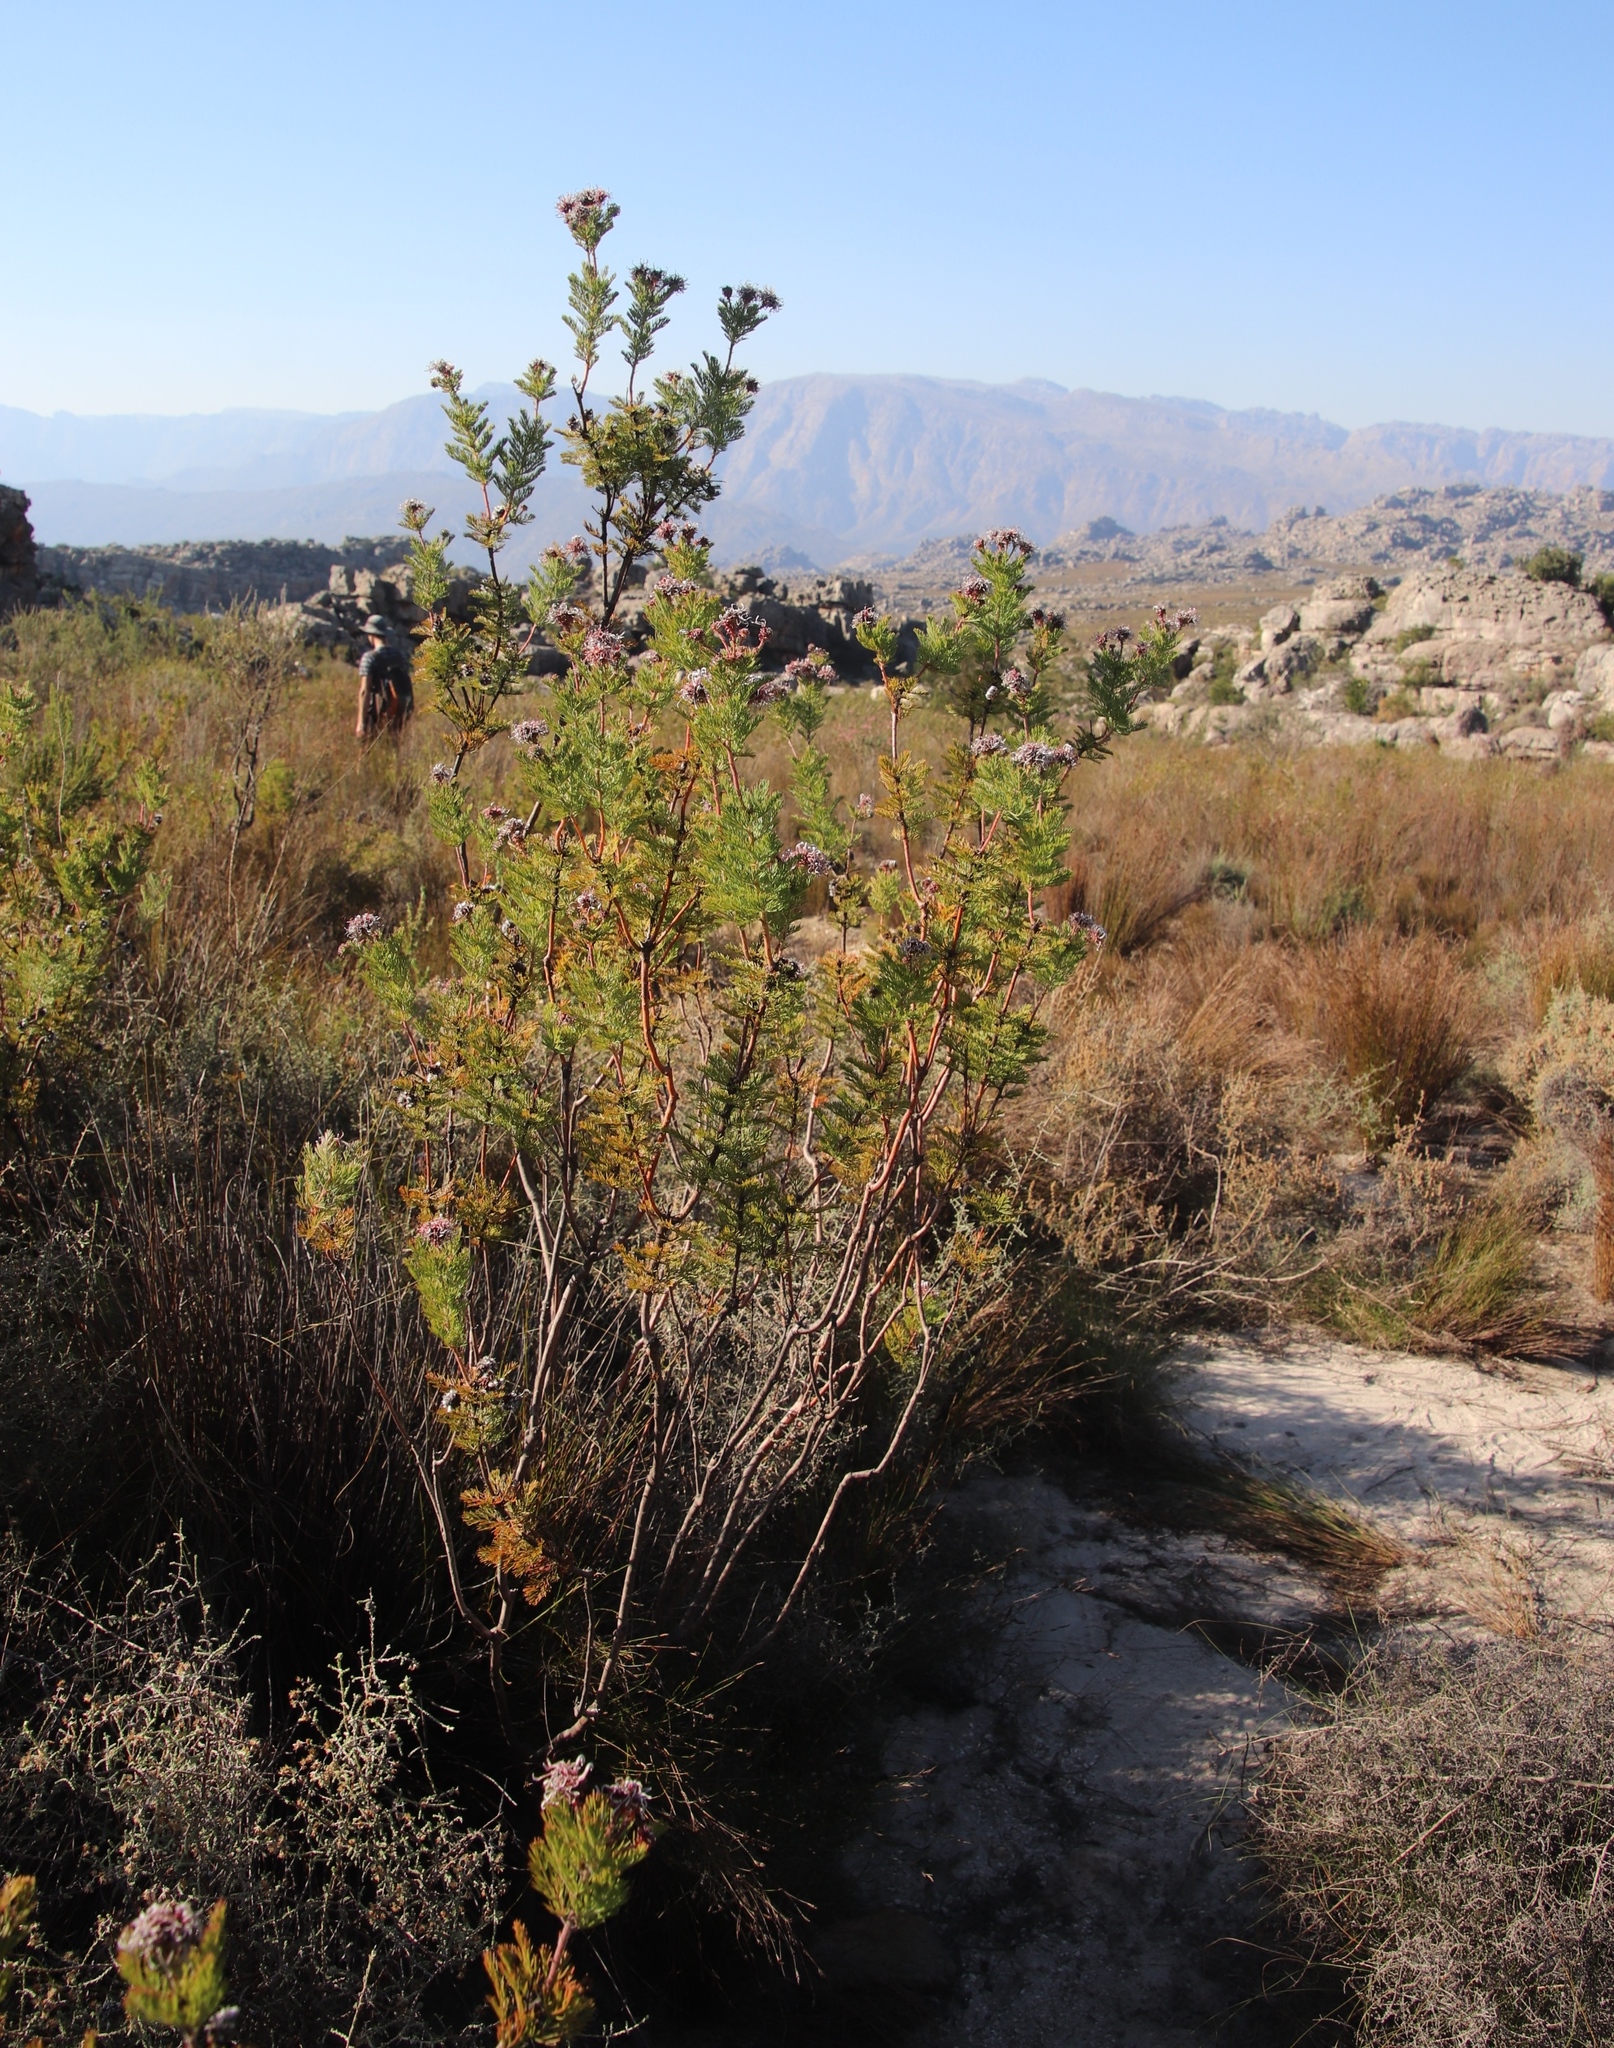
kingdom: Plantae
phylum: Tracheophyta
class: Magnoliopsida
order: Proteales
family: Proteaceae
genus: Serruria
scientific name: Serruria pedunculata
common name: Fan-leaf spiderhead
